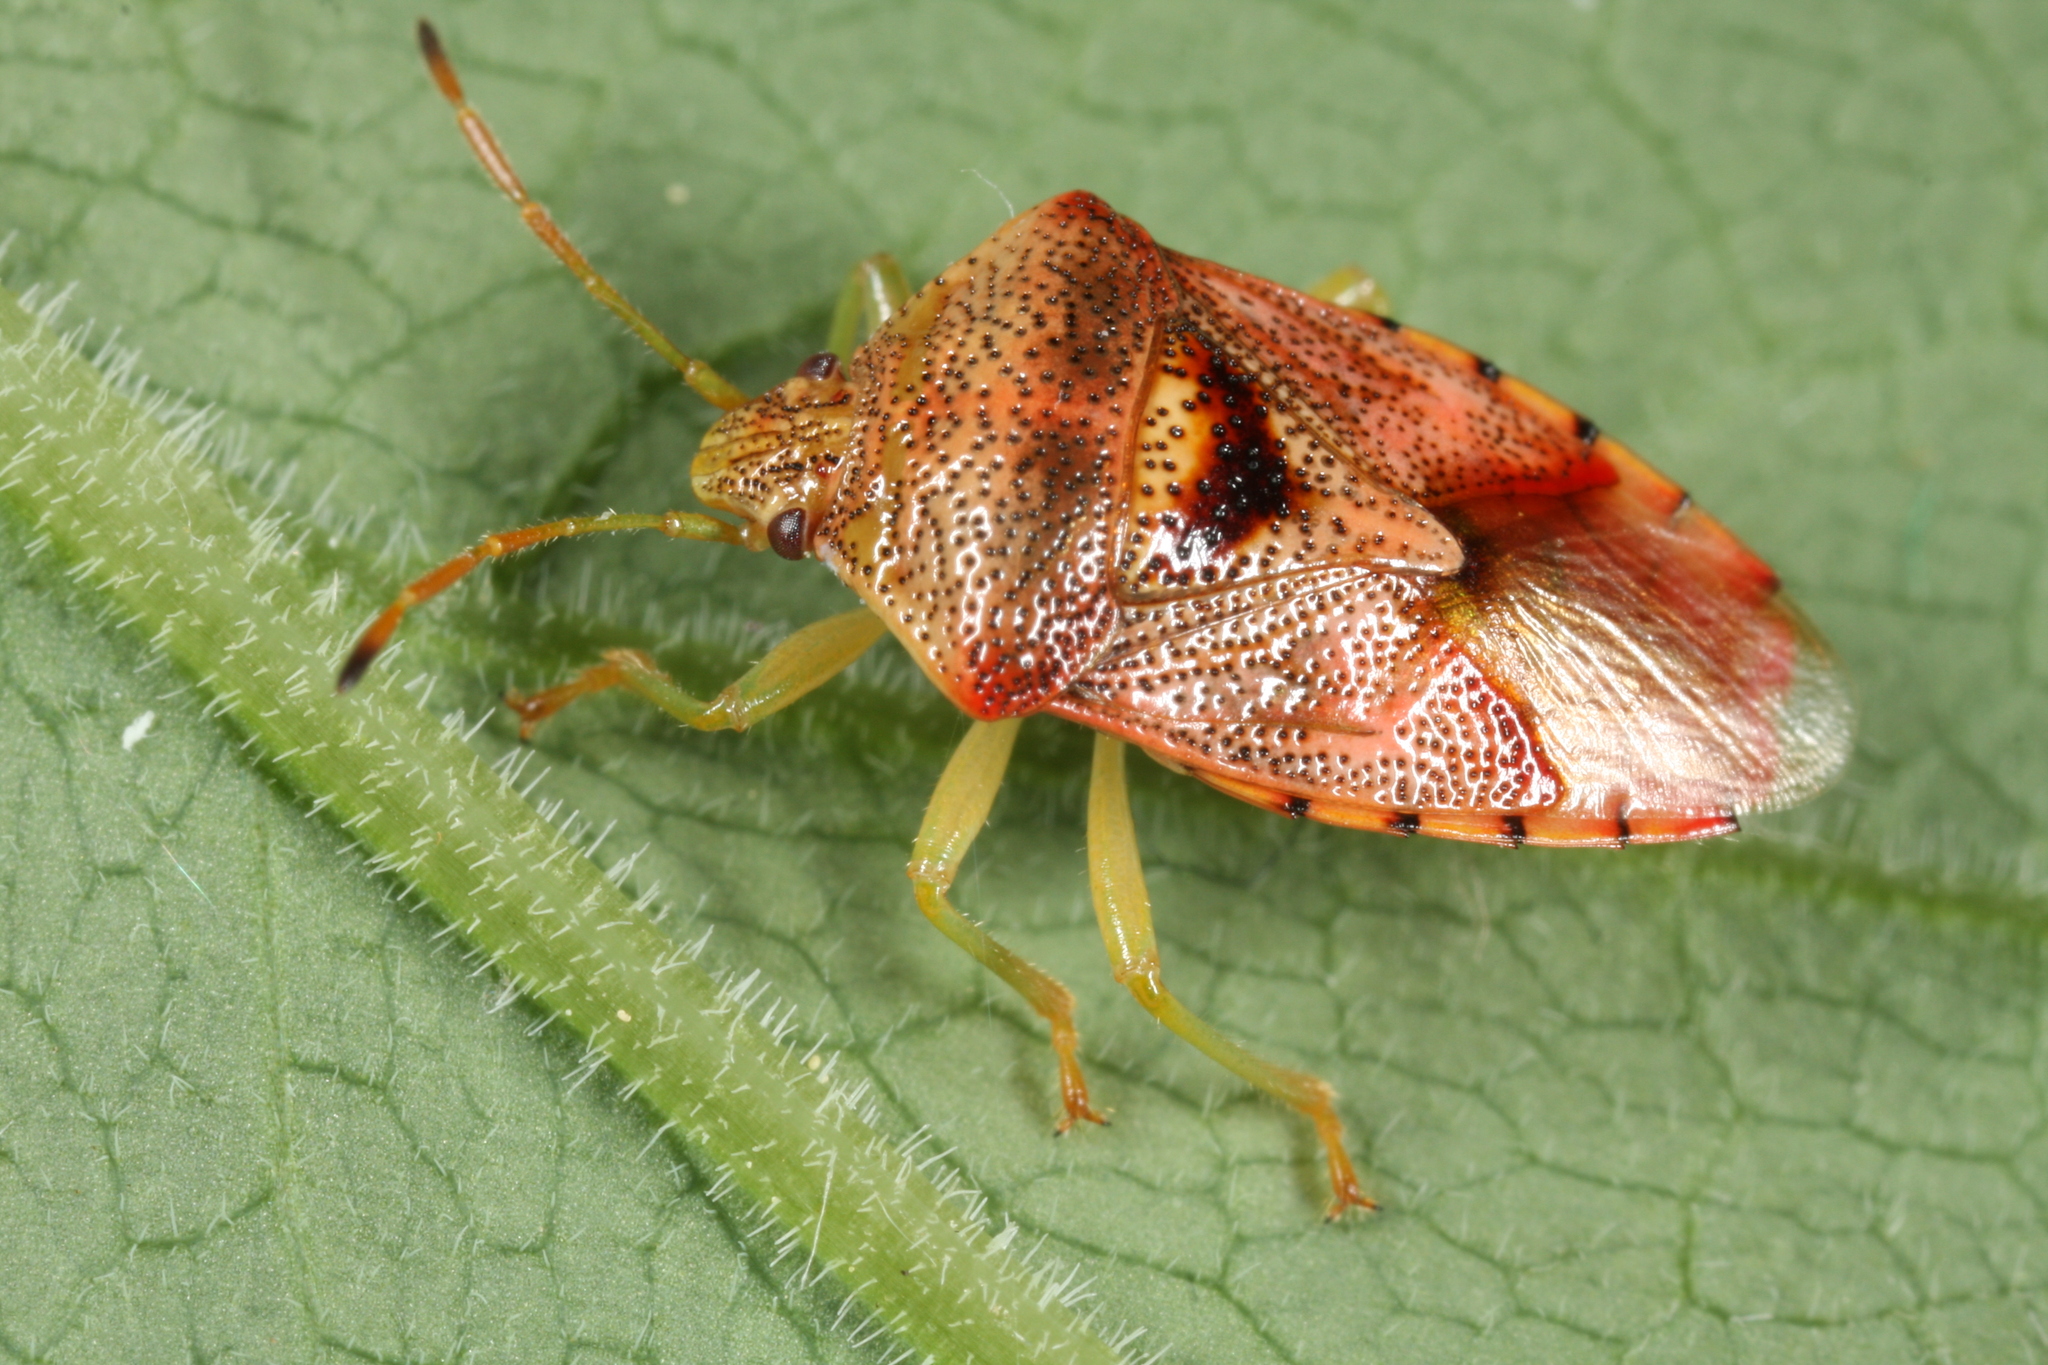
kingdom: Animalia
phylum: Arthropoda
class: Insecta
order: Hemiptera
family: Acanthosomatidae
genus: Elasmucha
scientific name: Elasmucha grisea
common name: Parent bug
